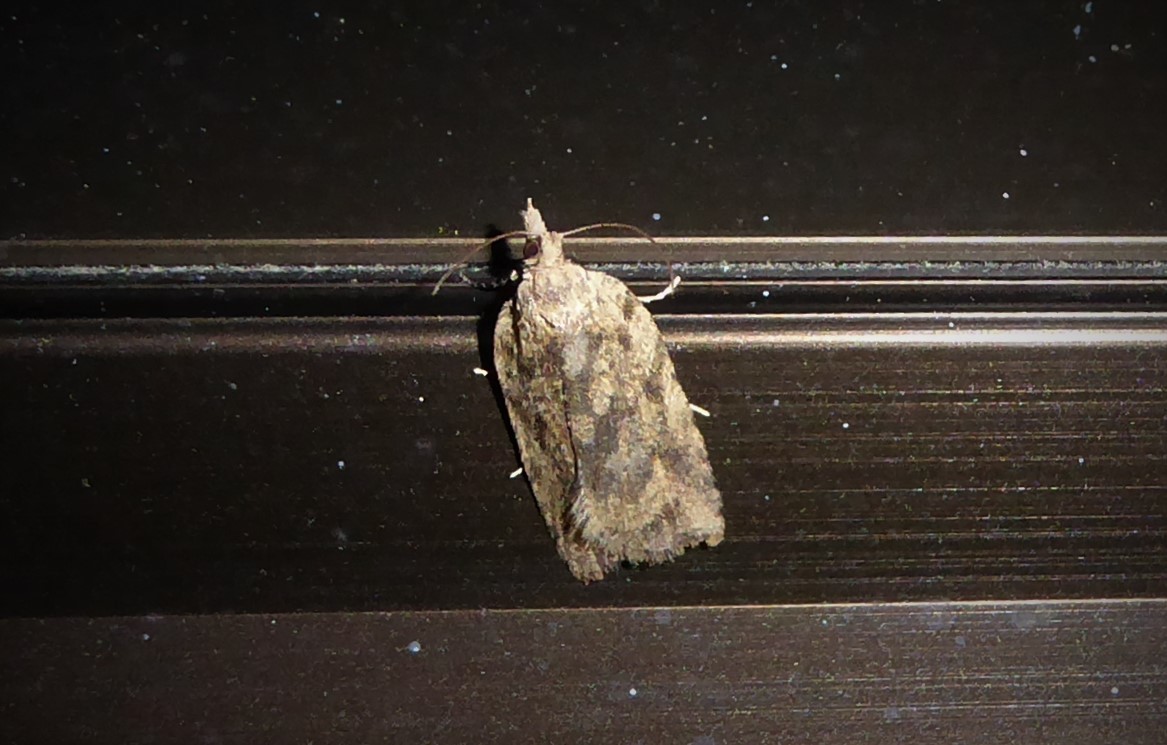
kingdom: Animalia
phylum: Arthropoda
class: Insecta
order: Lepidoptera
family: Tortricidae
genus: Ctenopseustis
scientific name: Ctenopseustis obliquana
